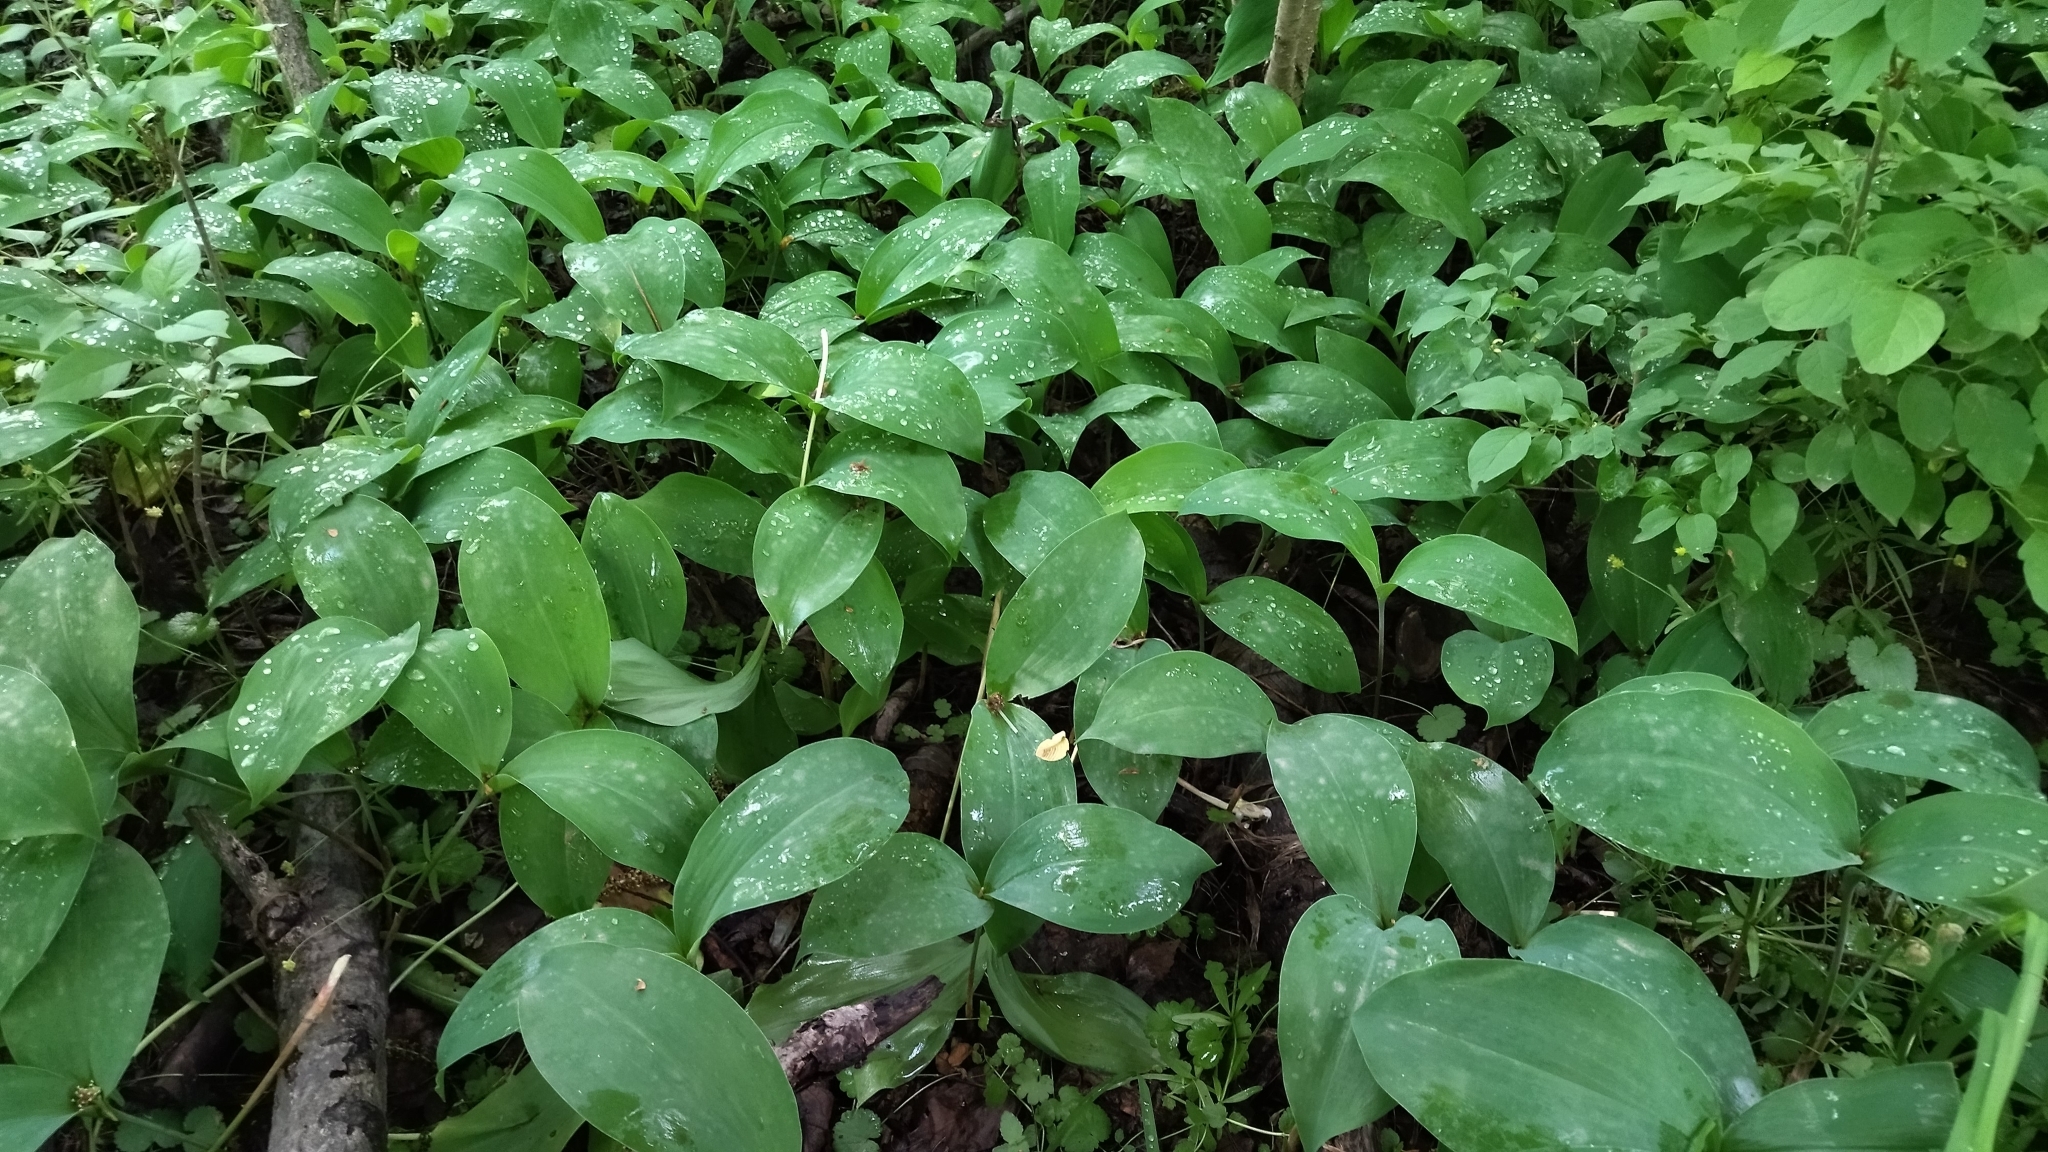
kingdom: Plantae
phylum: Tracheophyta
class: Liliopsida
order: Asparagales
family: Asparagaceae
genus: Convallaria
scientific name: Convallaria majalis
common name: Lily-of-the-valley
